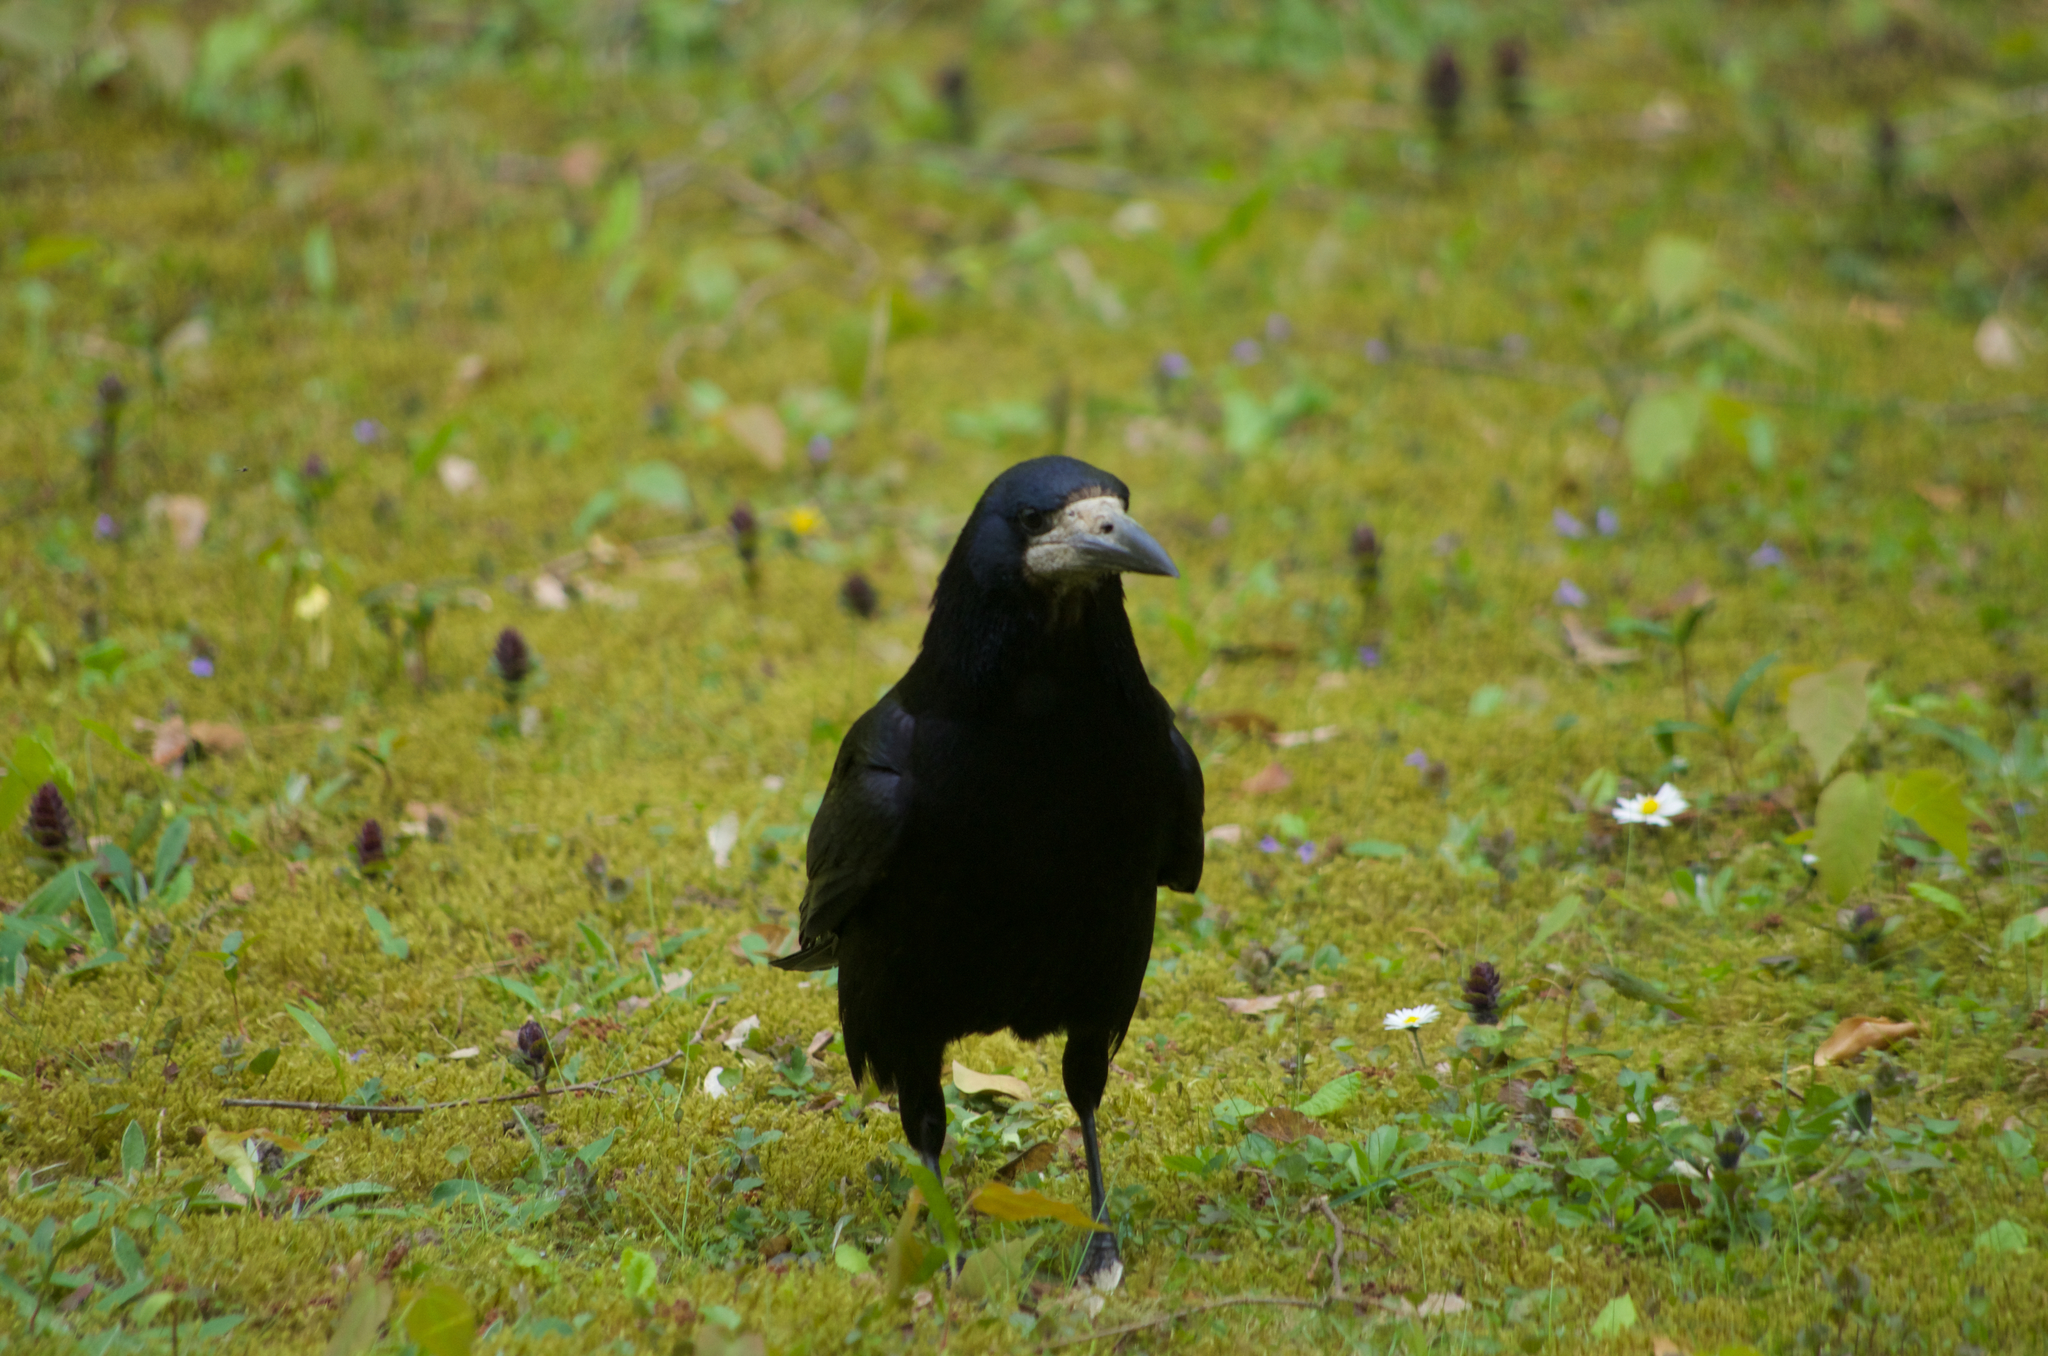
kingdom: Animalia
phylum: Chordata
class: Aves
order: Passeriformes
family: Corvidae
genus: Corvus
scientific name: Corvus frugilegus
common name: Rook
